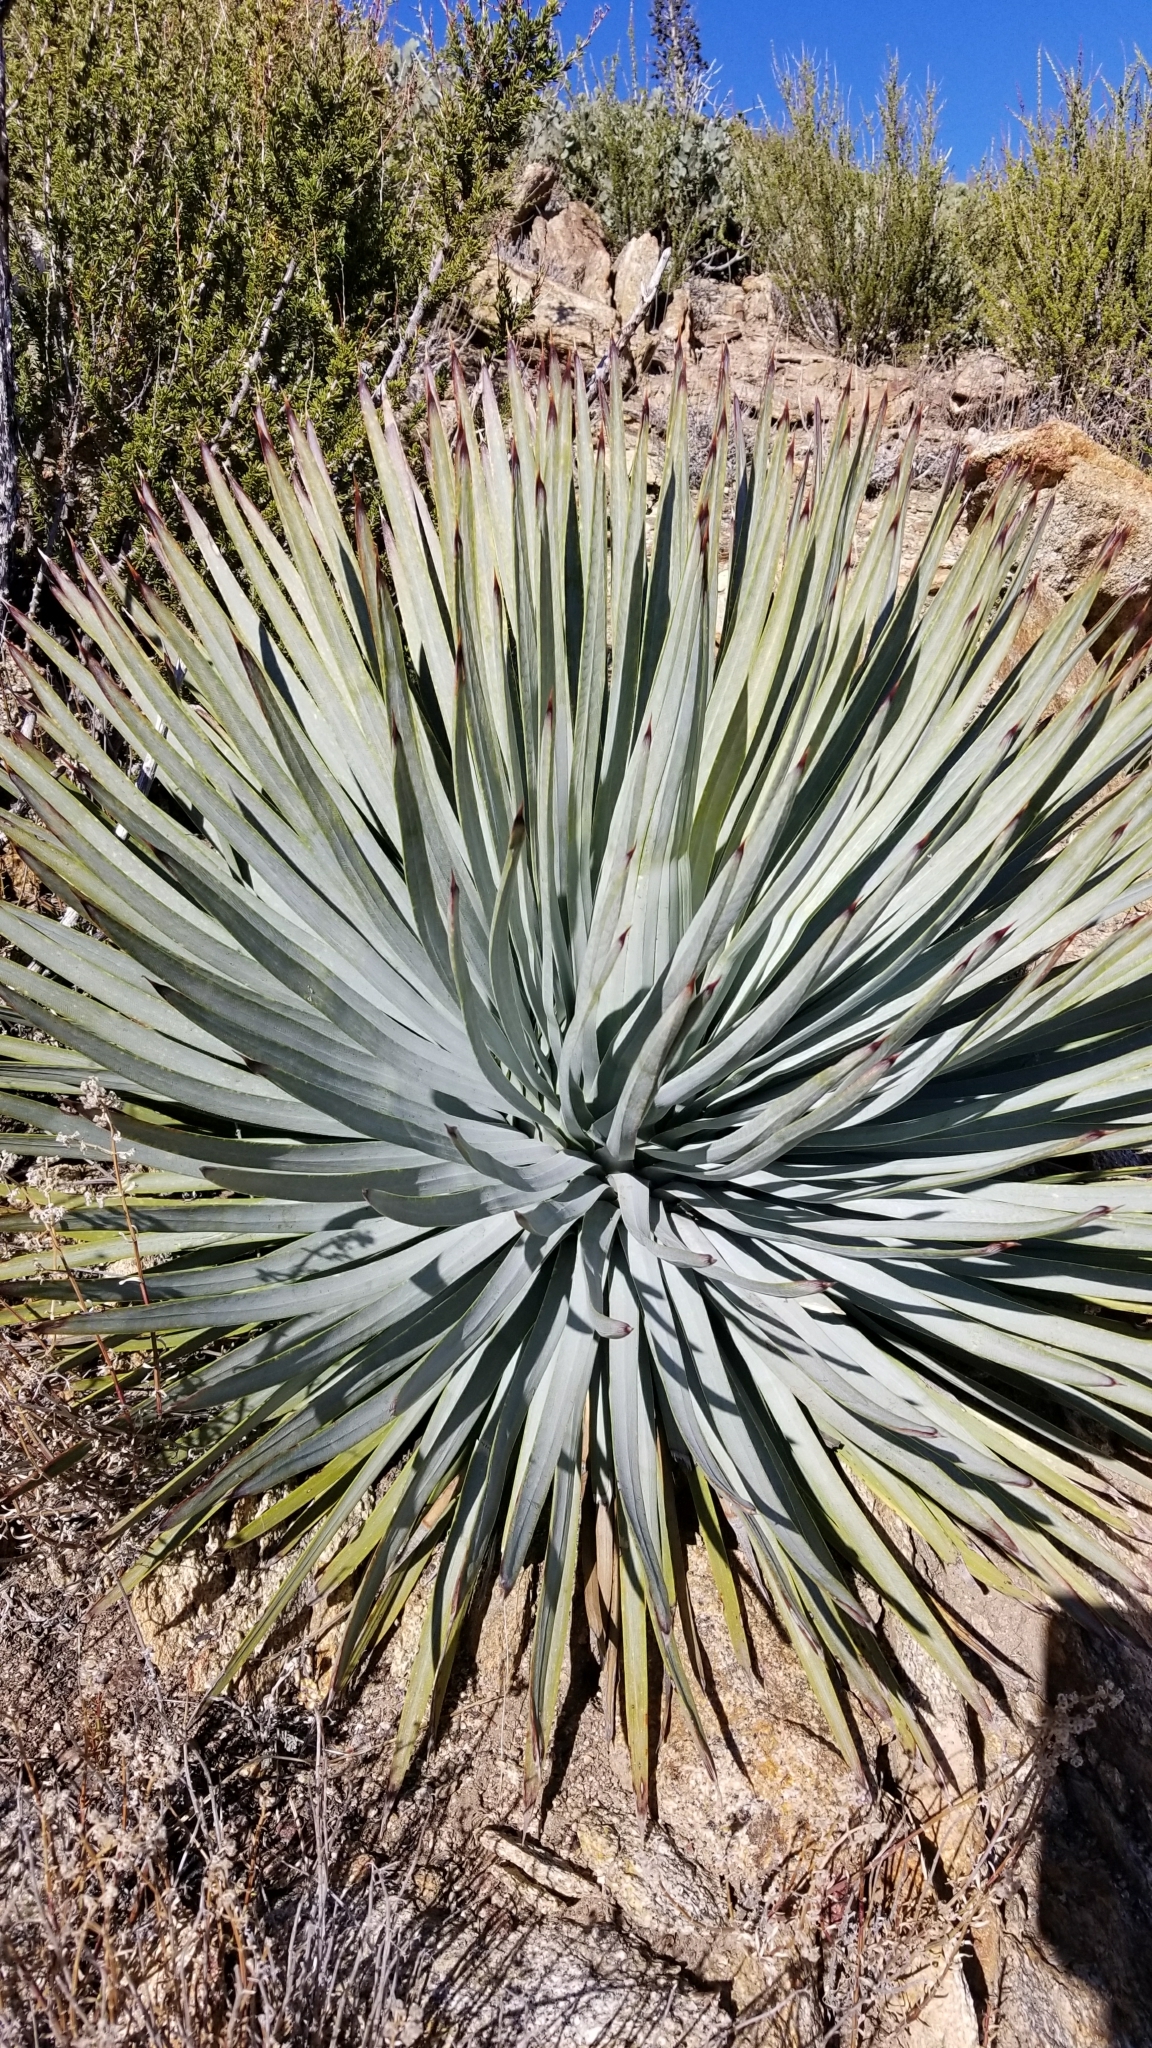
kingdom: Plantae
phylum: Tracheophyta
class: Liliopsida
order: Asparagales
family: Asparagaceae
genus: Hesperoyucca
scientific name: Hesperoyucca whipplei
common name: Our lord's-candle
